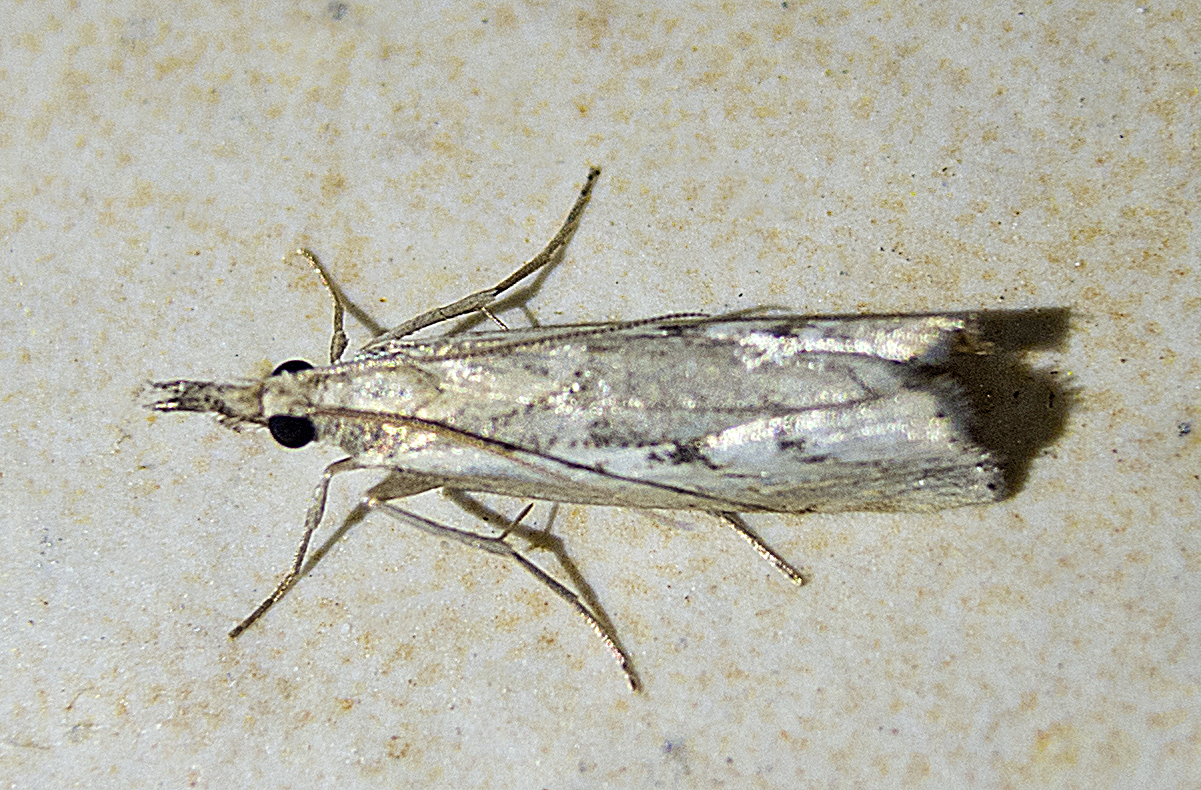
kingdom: Animalia
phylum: Arthropoda
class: Insecta
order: Lepidoptera
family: Crambidae
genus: Agriphila
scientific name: Agriphila tolli
